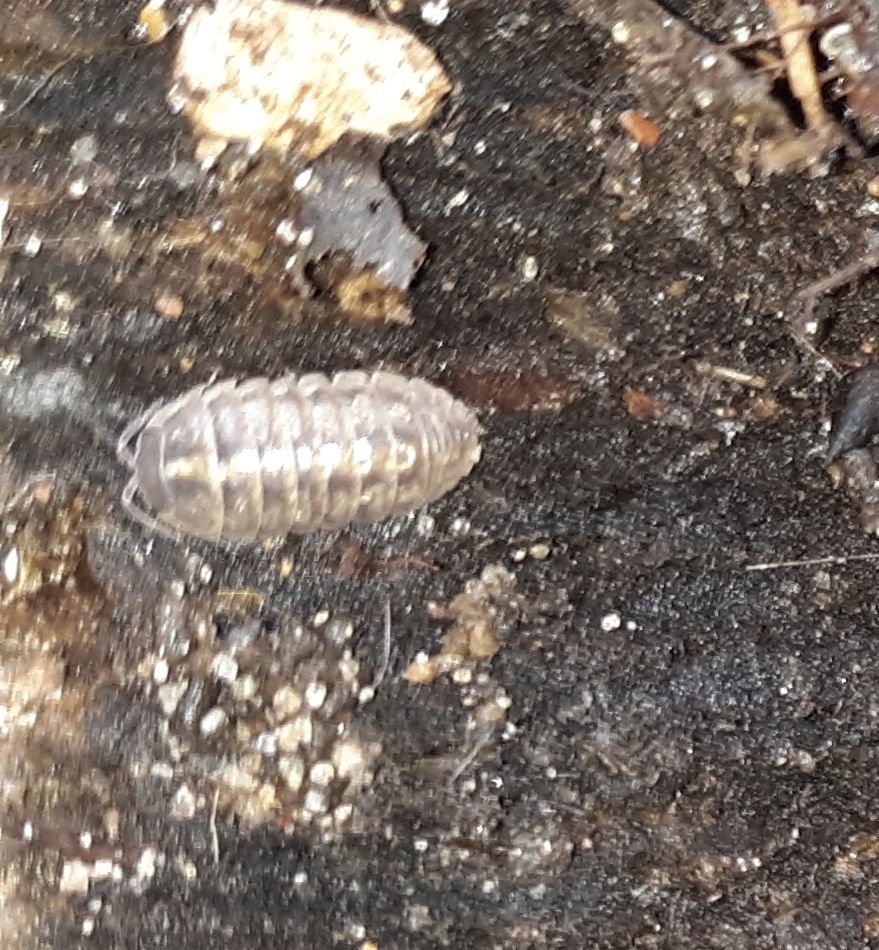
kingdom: Animalia
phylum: Arthropoda
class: Malacostraca
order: Isopoda
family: Armadillidiidae
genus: Armadillidium
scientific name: Armadillidium vulgare
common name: Common pill woodlouse
